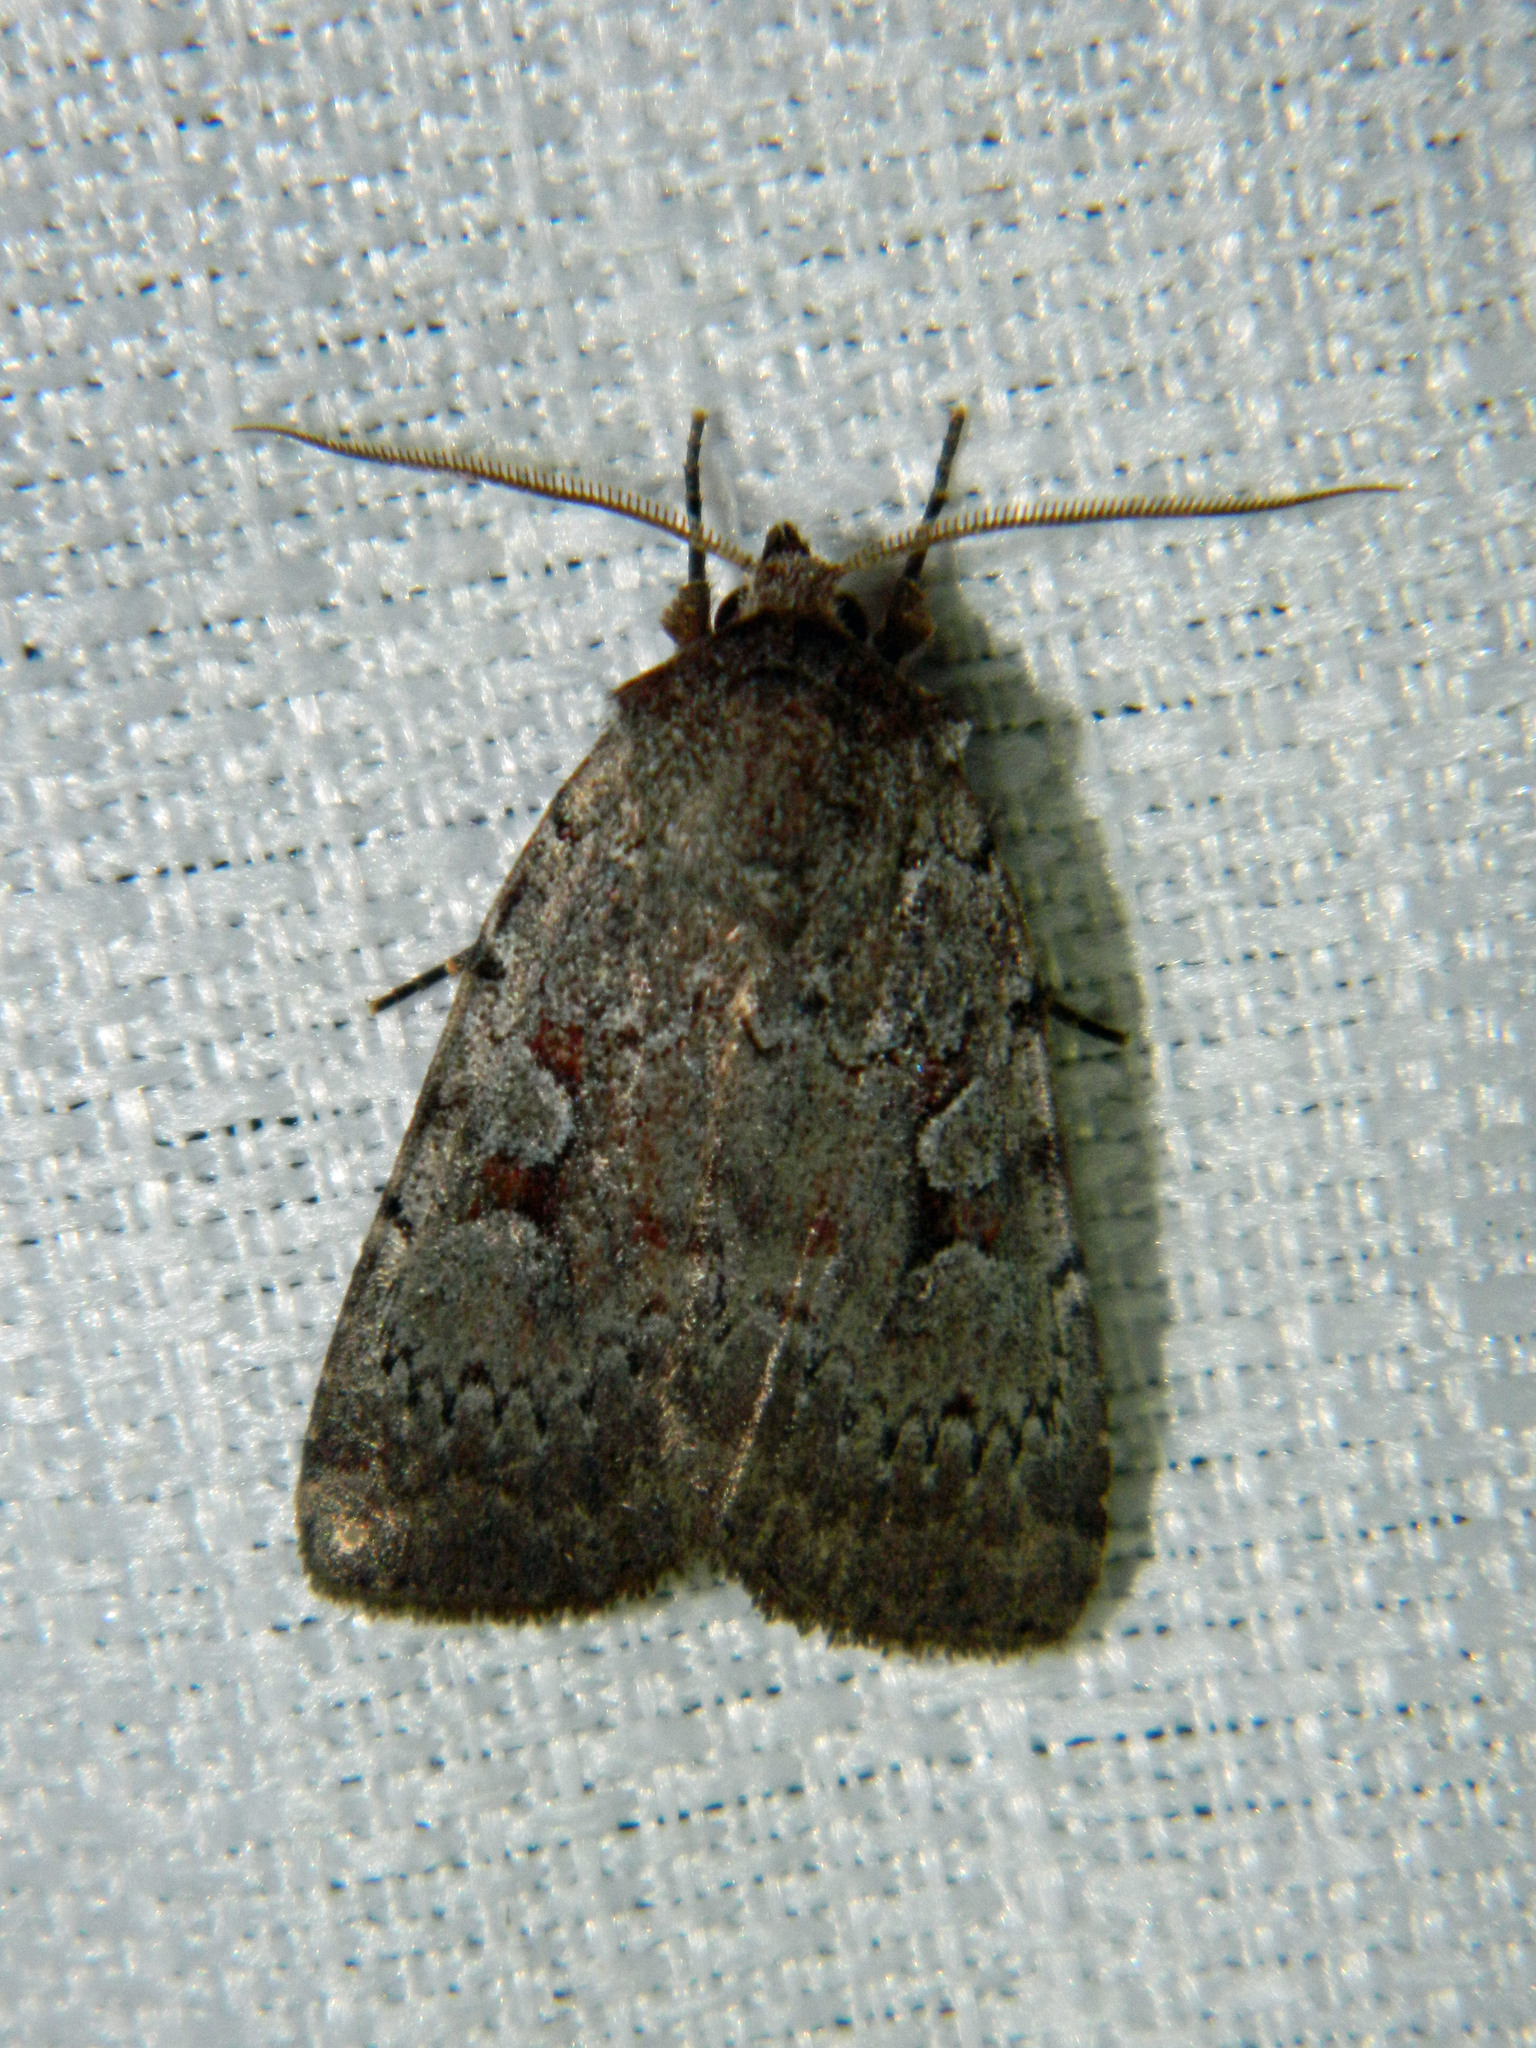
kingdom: Animalia
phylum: Arthropoda
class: Insecta
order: Lepidoptera
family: Noctuidae
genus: Coenophila
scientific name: Coenophila opacifrons
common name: Blueberry dart
